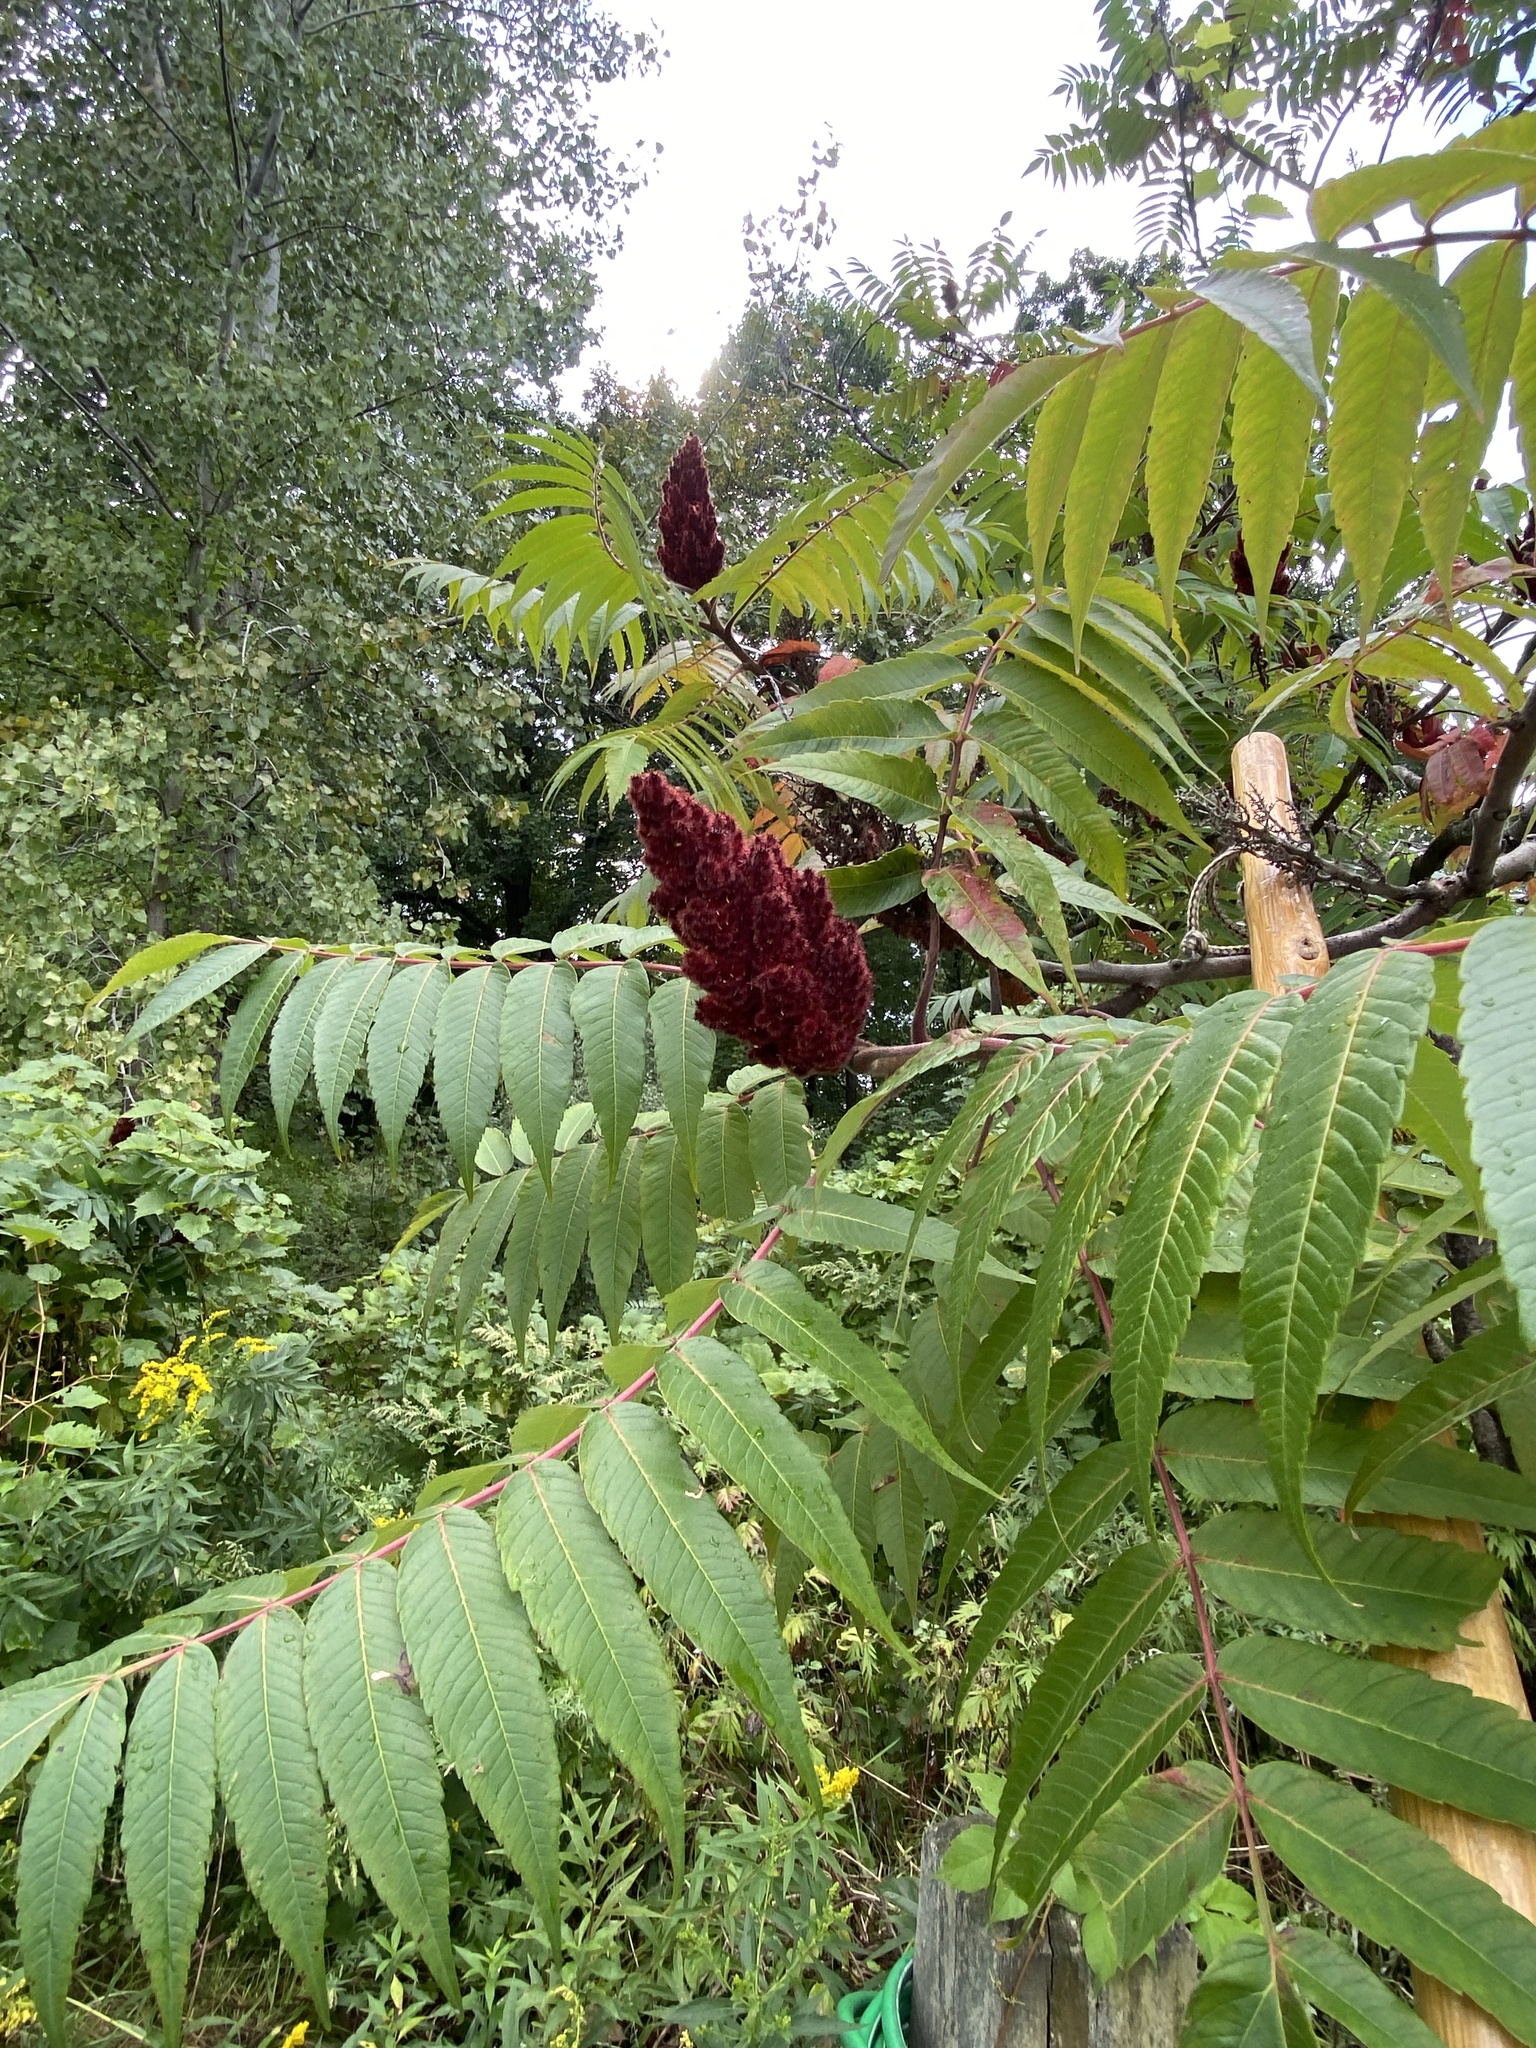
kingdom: Plantae
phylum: Tracheophyta
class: Magnoliopsida
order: Sapindales
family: Anacardiaceae
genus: Rhus
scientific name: Rhus typhina
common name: Staghorn sumac
